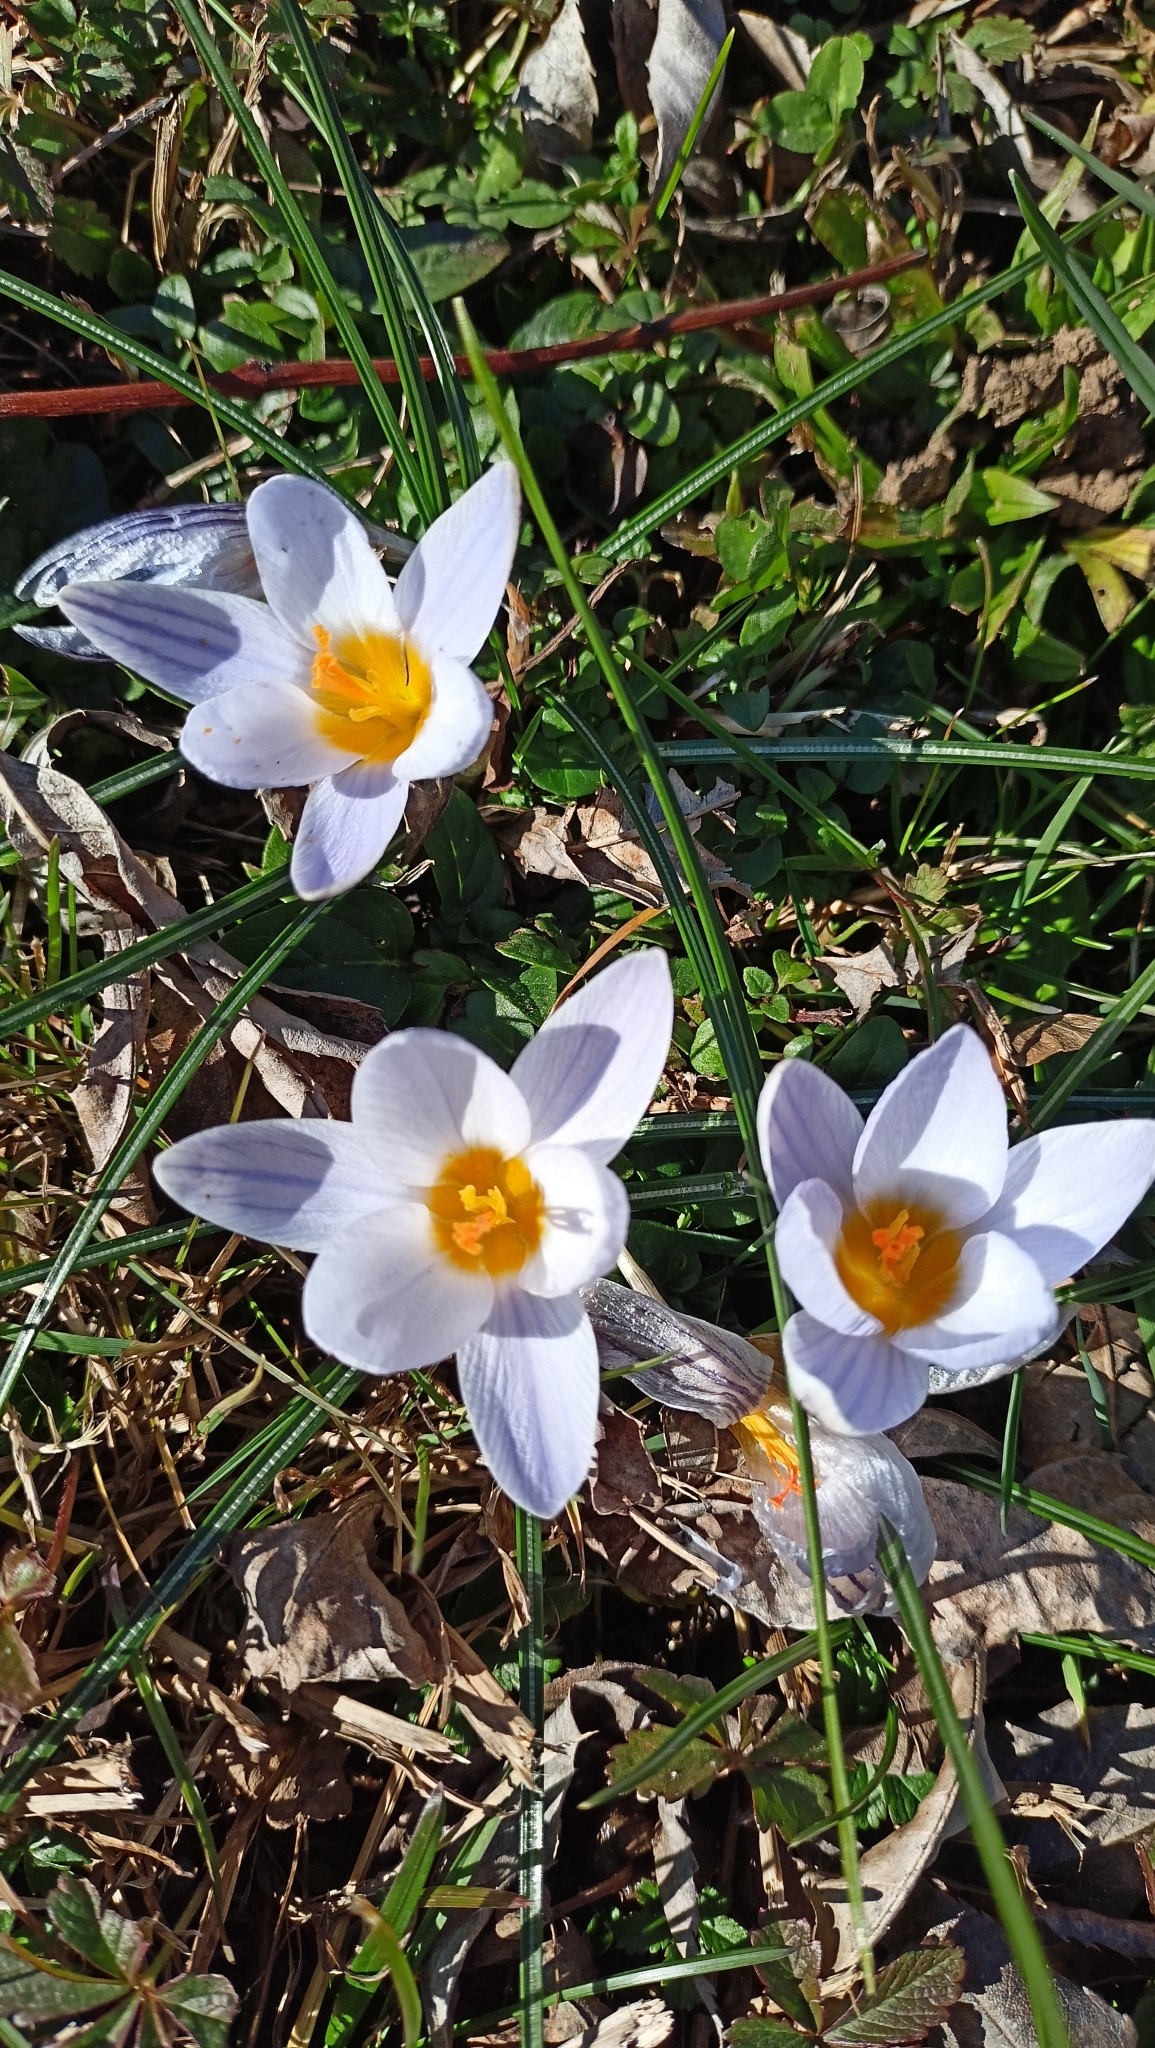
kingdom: Plantae
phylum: Tracheophyta
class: Liliopsida
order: Asparagales
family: Iridaceae
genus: Crocus
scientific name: Crocus biflorus
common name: Silvery crocus
